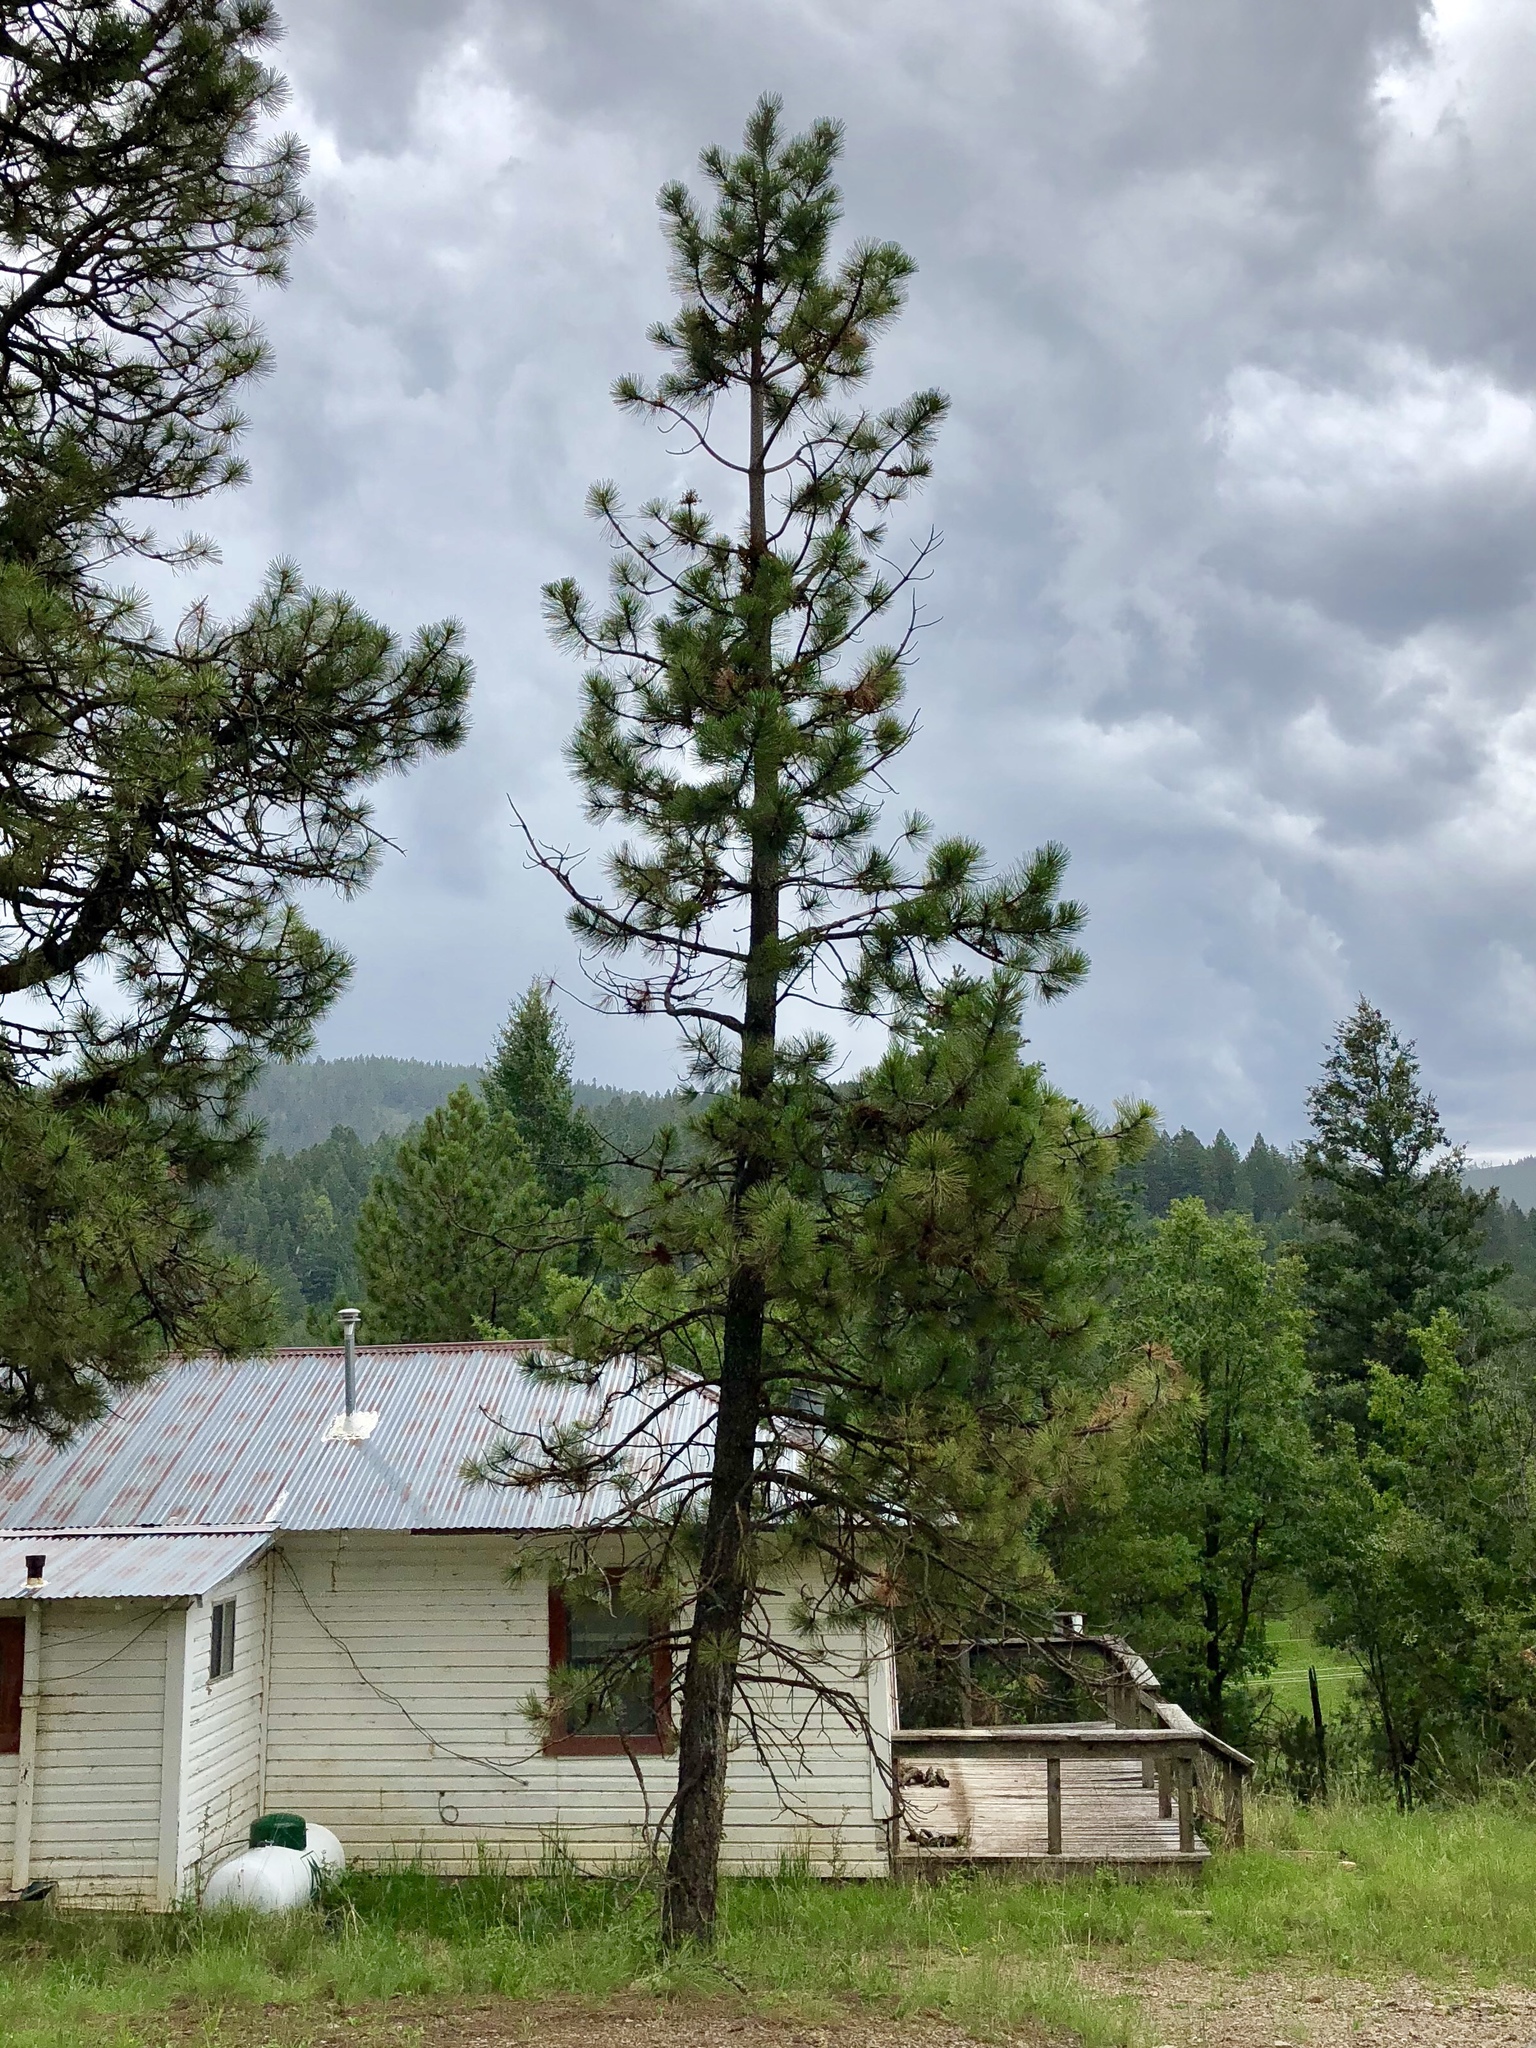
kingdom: Plantae
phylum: Tracheophyta
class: Pinopsida
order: Pinales
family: Pinaceae
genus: Pinus
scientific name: Pinus ponderosa
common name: Western yellow-pine
